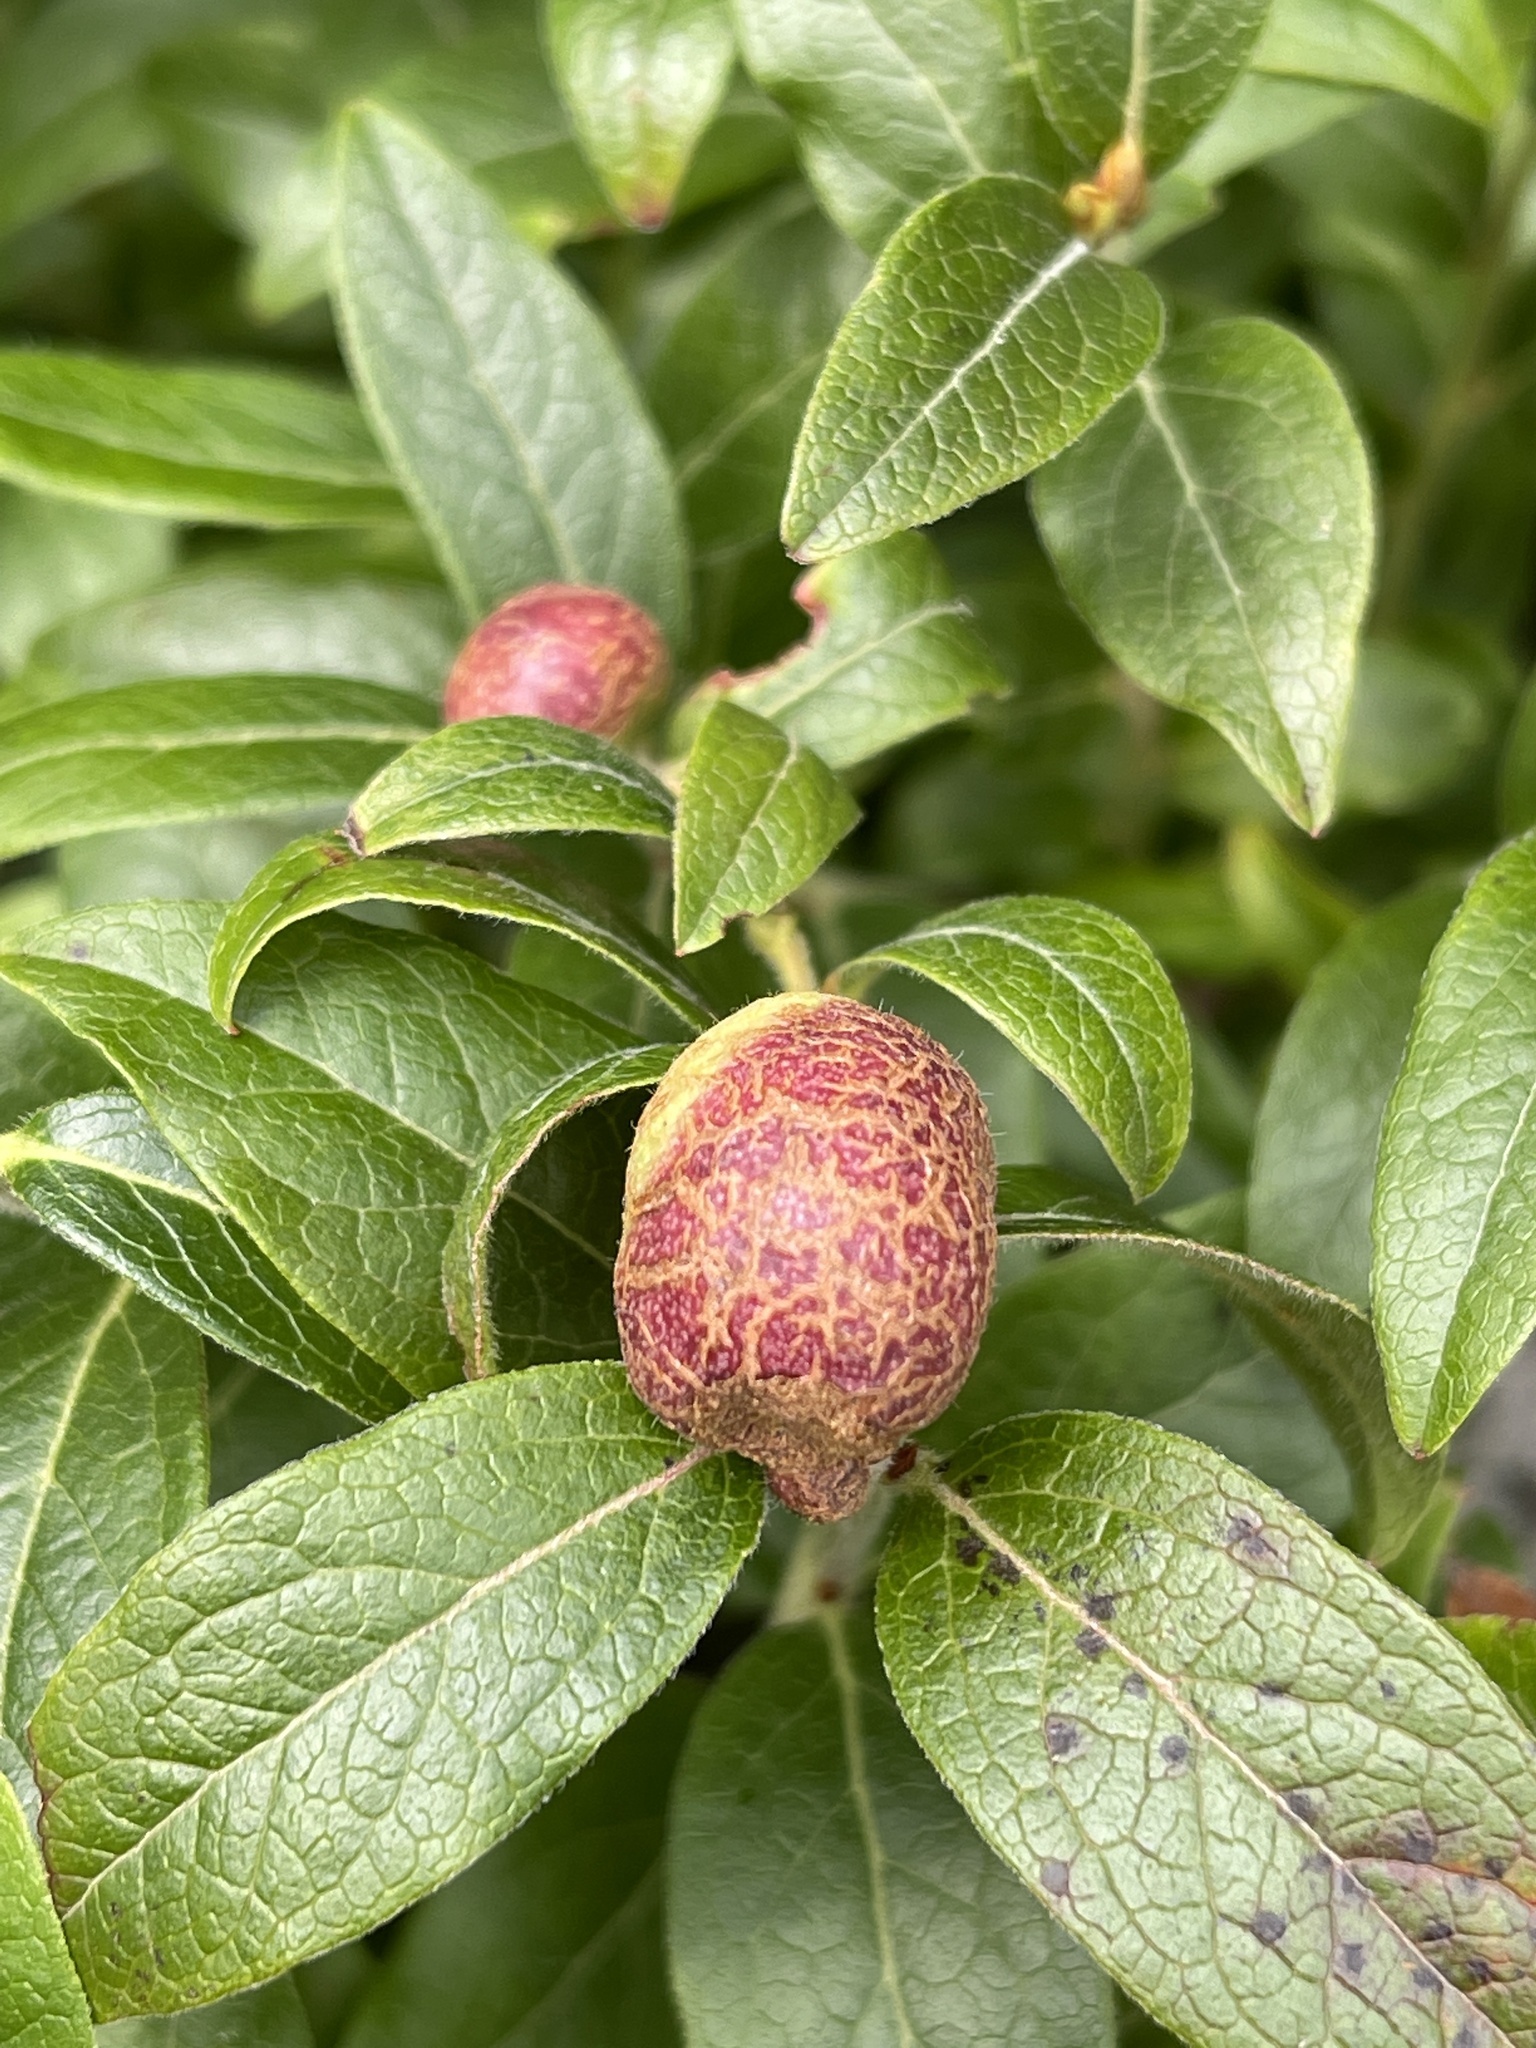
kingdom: Animalia
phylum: Arthropoda
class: Insecta
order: Hymenoptera
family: Pteromalidae
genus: Hemadas
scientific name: Hemadas nubilipennis
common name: Blueberry stem gall wasp
